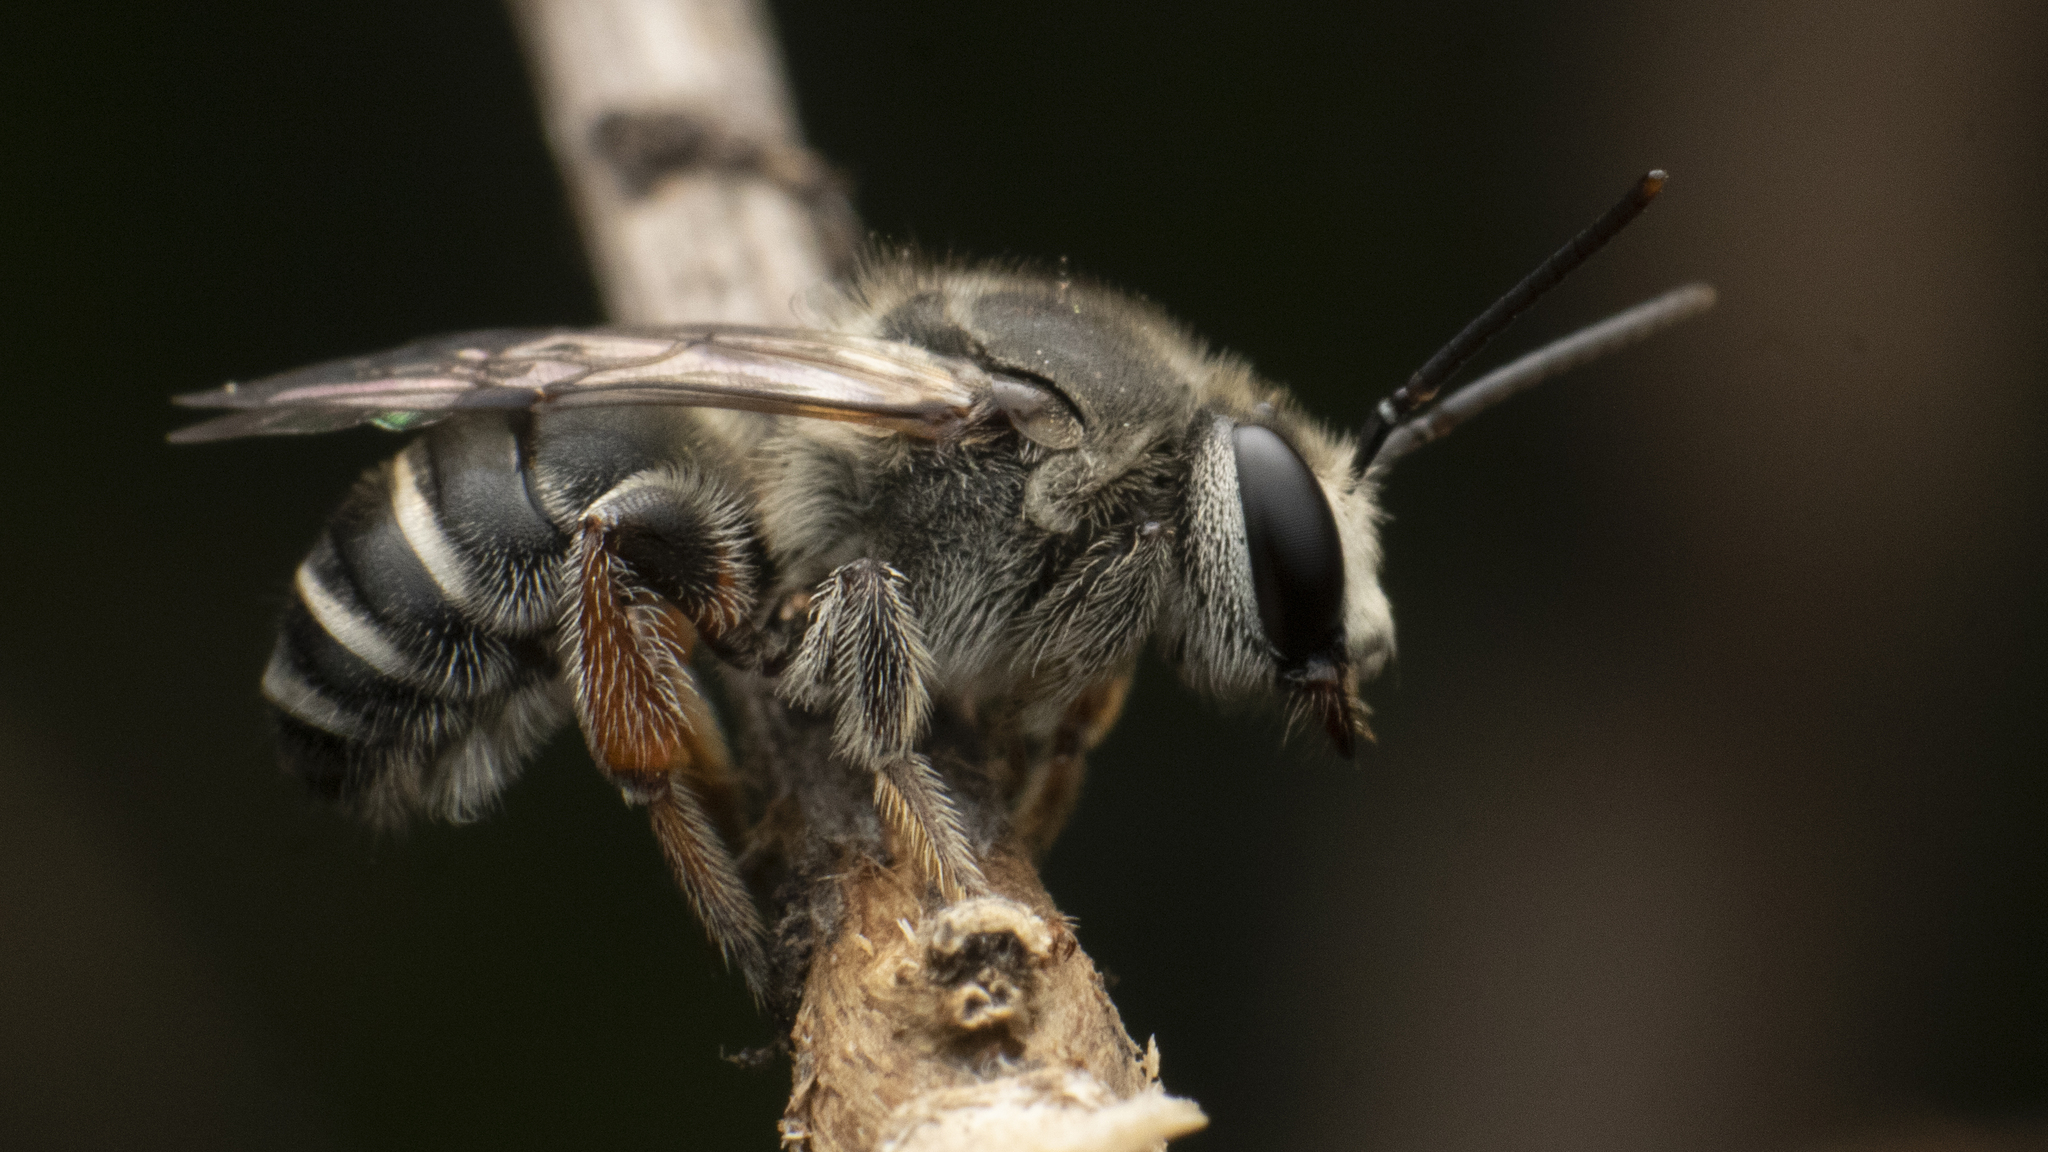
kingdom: Animalia
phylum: Arthropoda
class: Insecta
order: Hymenoptera
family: Halictidae
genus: Nomia
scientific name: Nomia
